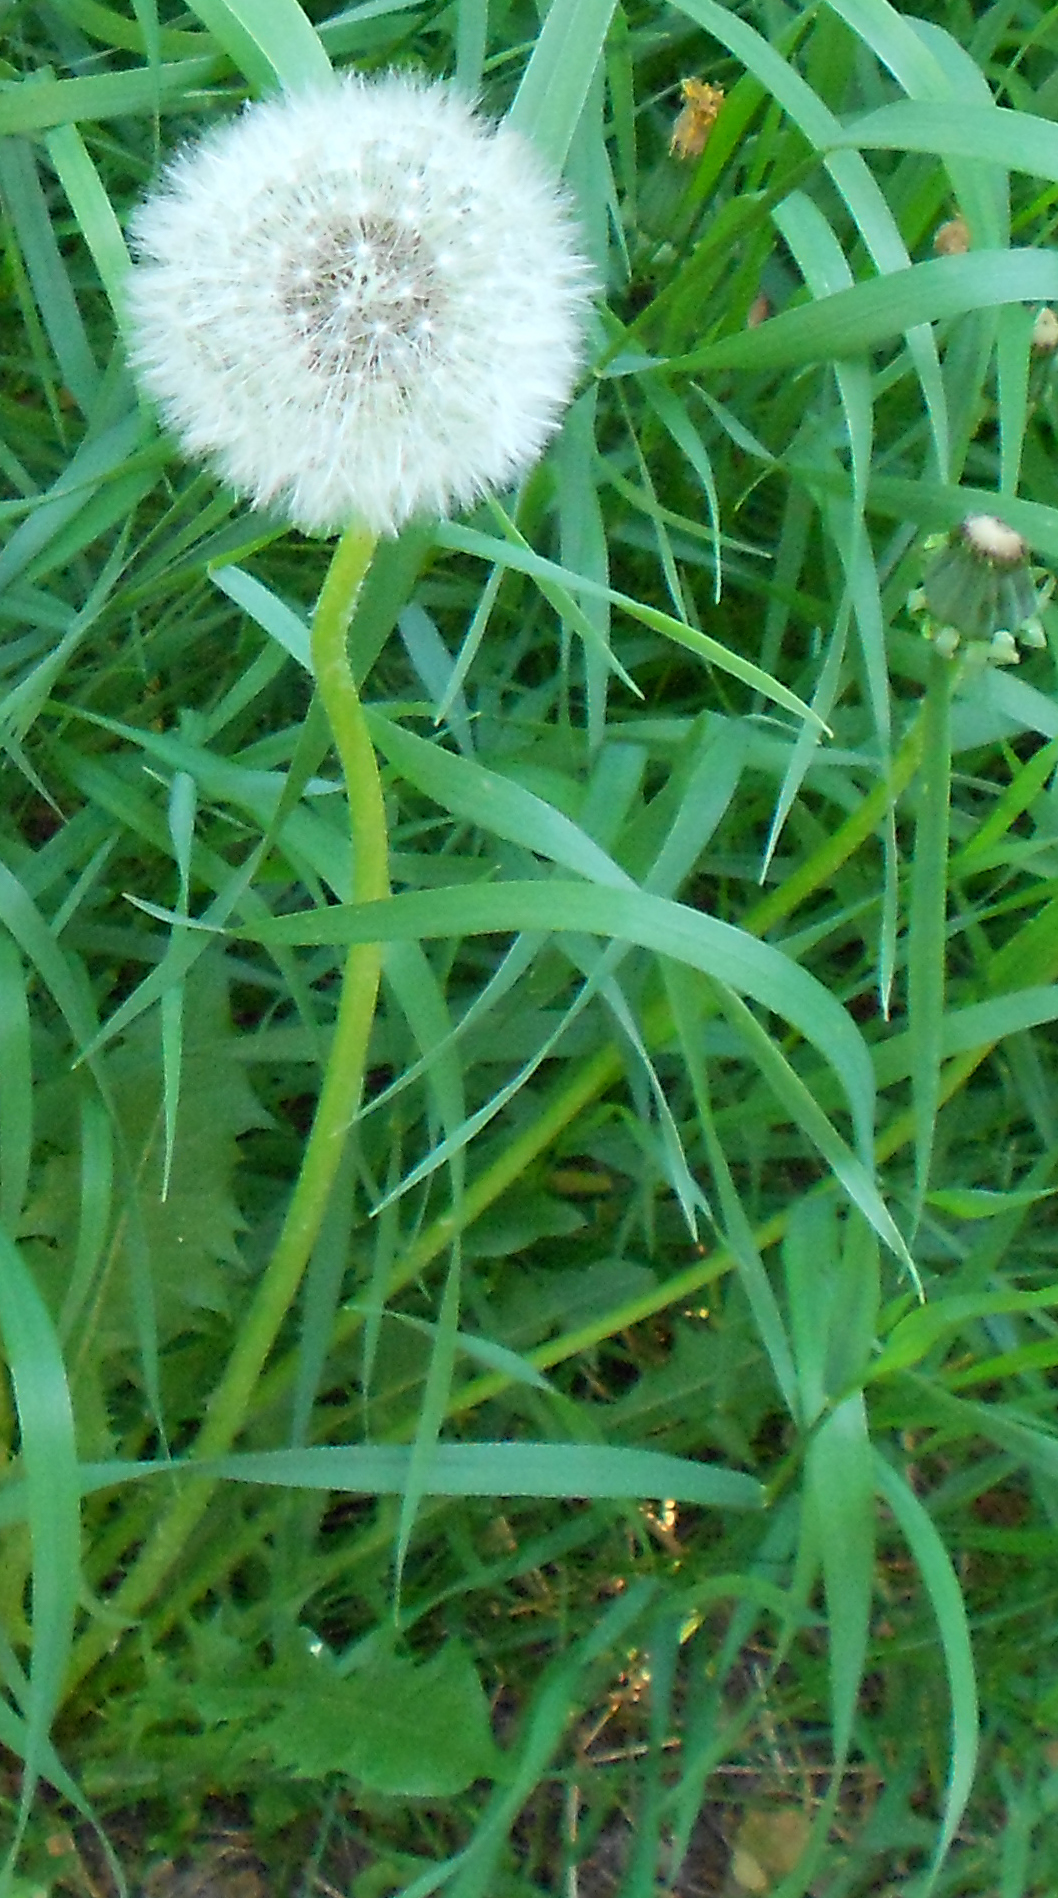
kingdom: Plantae
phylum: Tracheophyta
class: Magnoliopsida
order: Asterales
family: Asteraceae
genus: Taraxacum
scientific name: Taraxacum officinale
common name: Common dandelion
